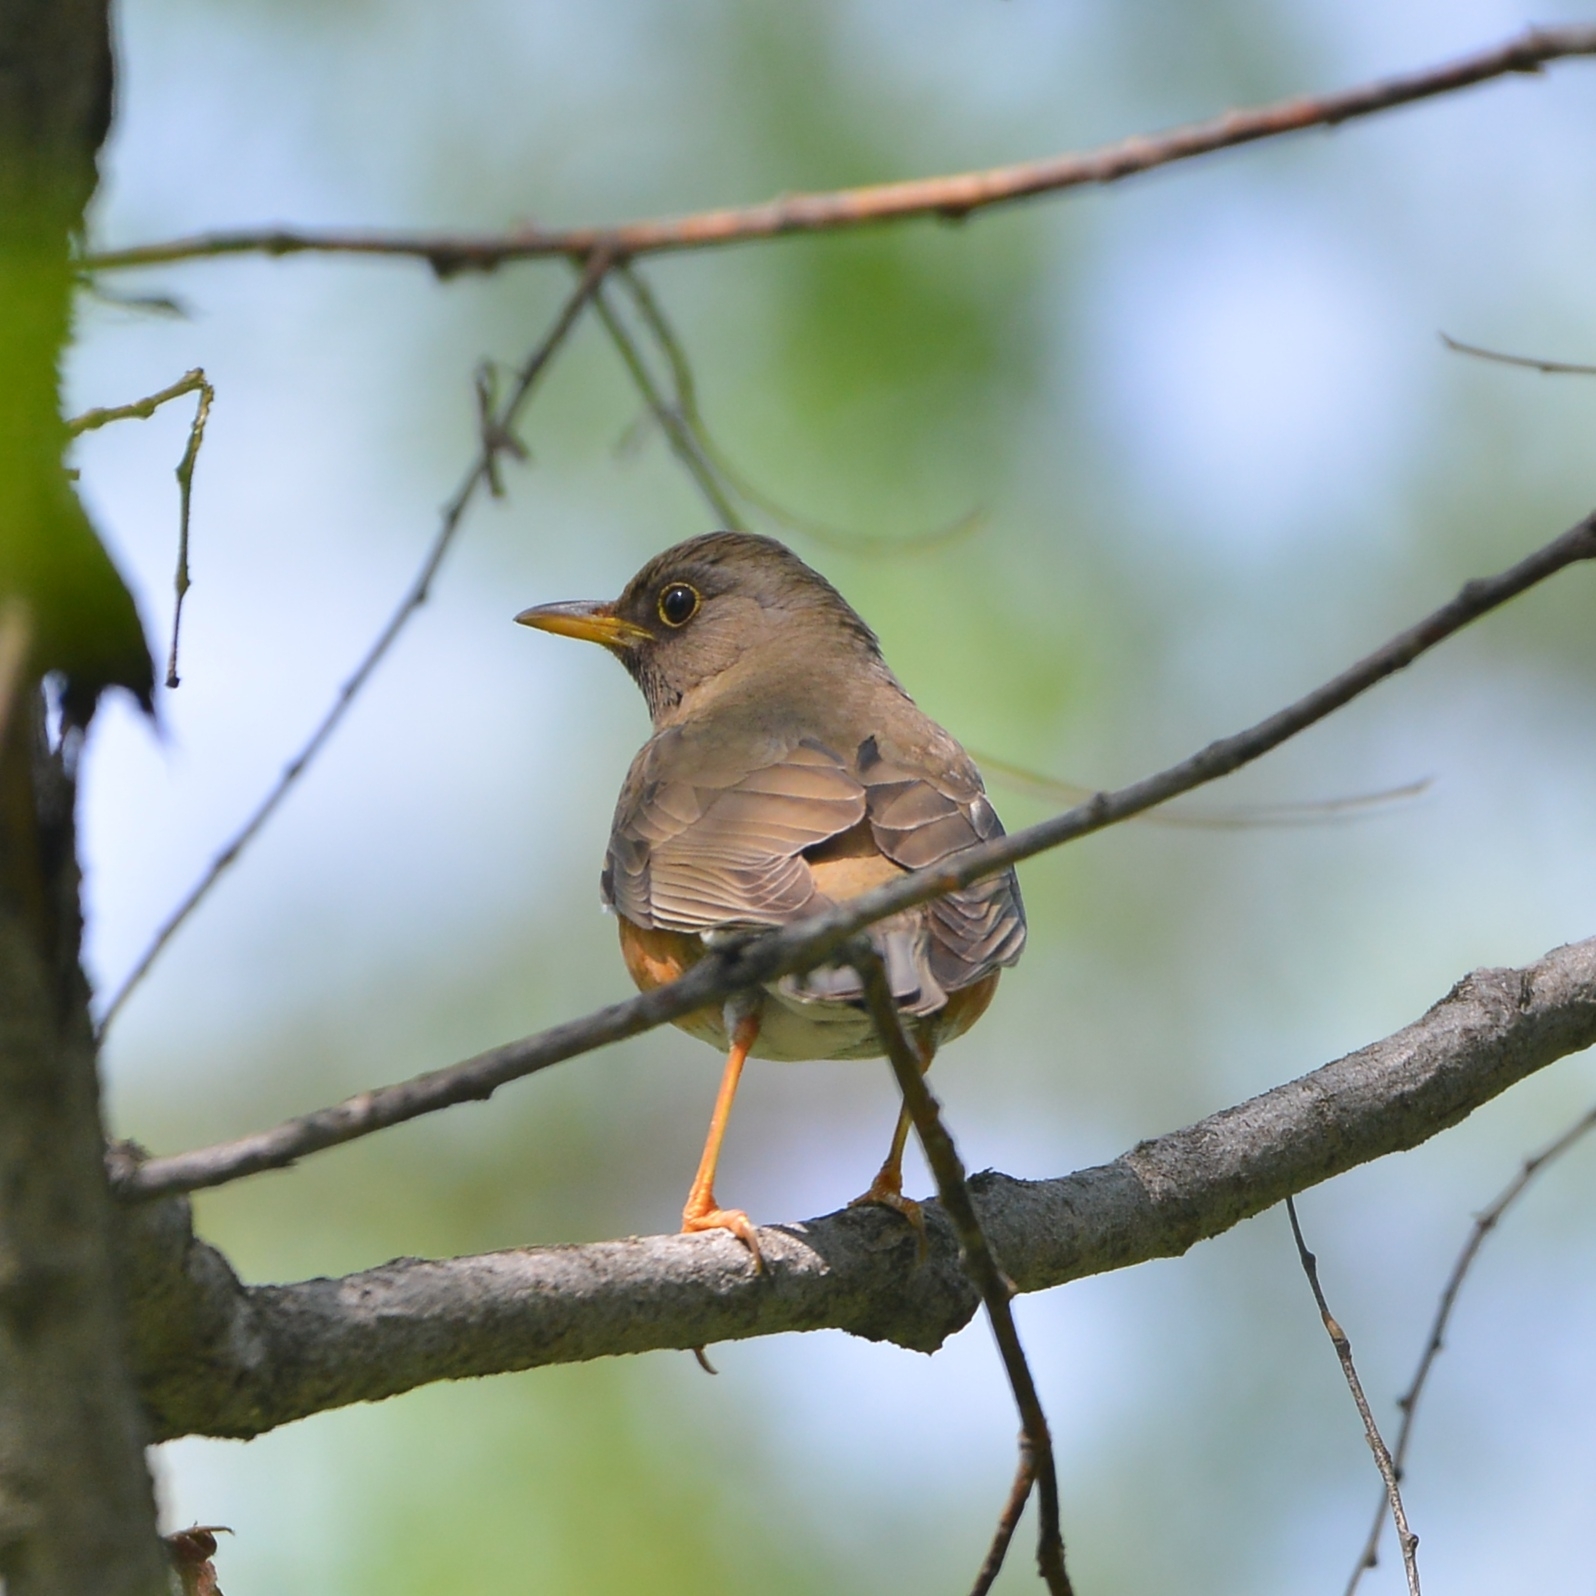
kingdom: Animalia
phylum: Chordata
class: Aves
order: Passeriformes
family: Turdidae
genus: Turdus
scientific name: Turdus chrysolaus
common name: Brown-headed thrush
